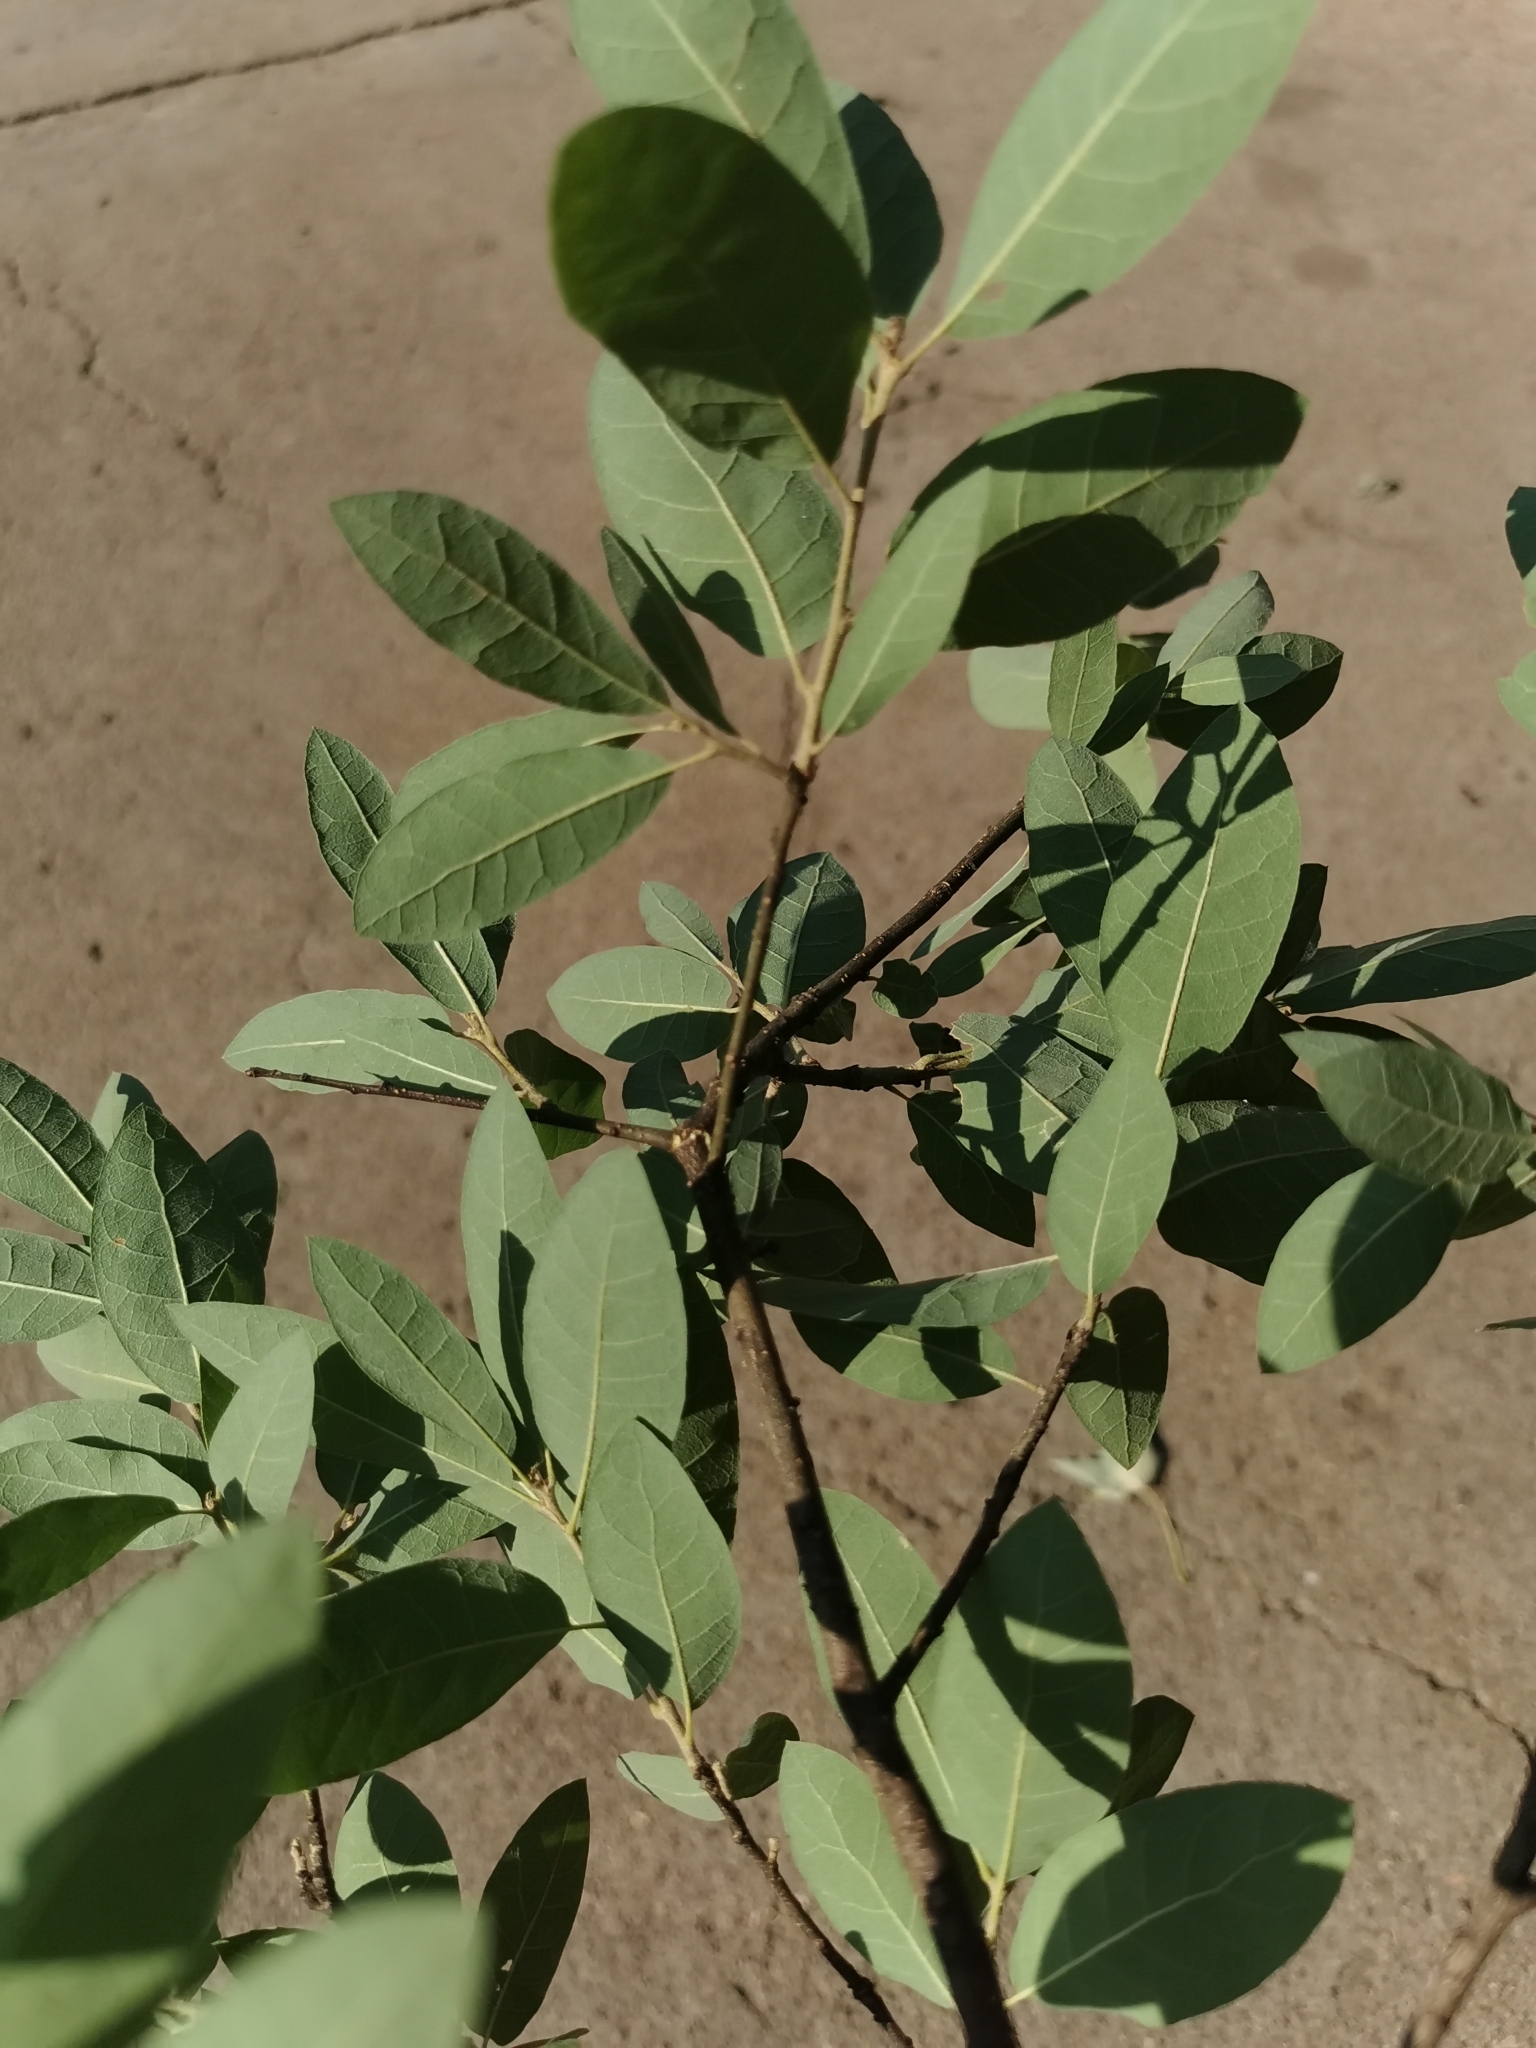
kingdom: Plantae
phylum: Tracheophyta
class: Magnoliopsida
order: Fagales
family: Fagaceae
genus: Quercus
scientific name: Quercus grisea
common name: Gray oak
